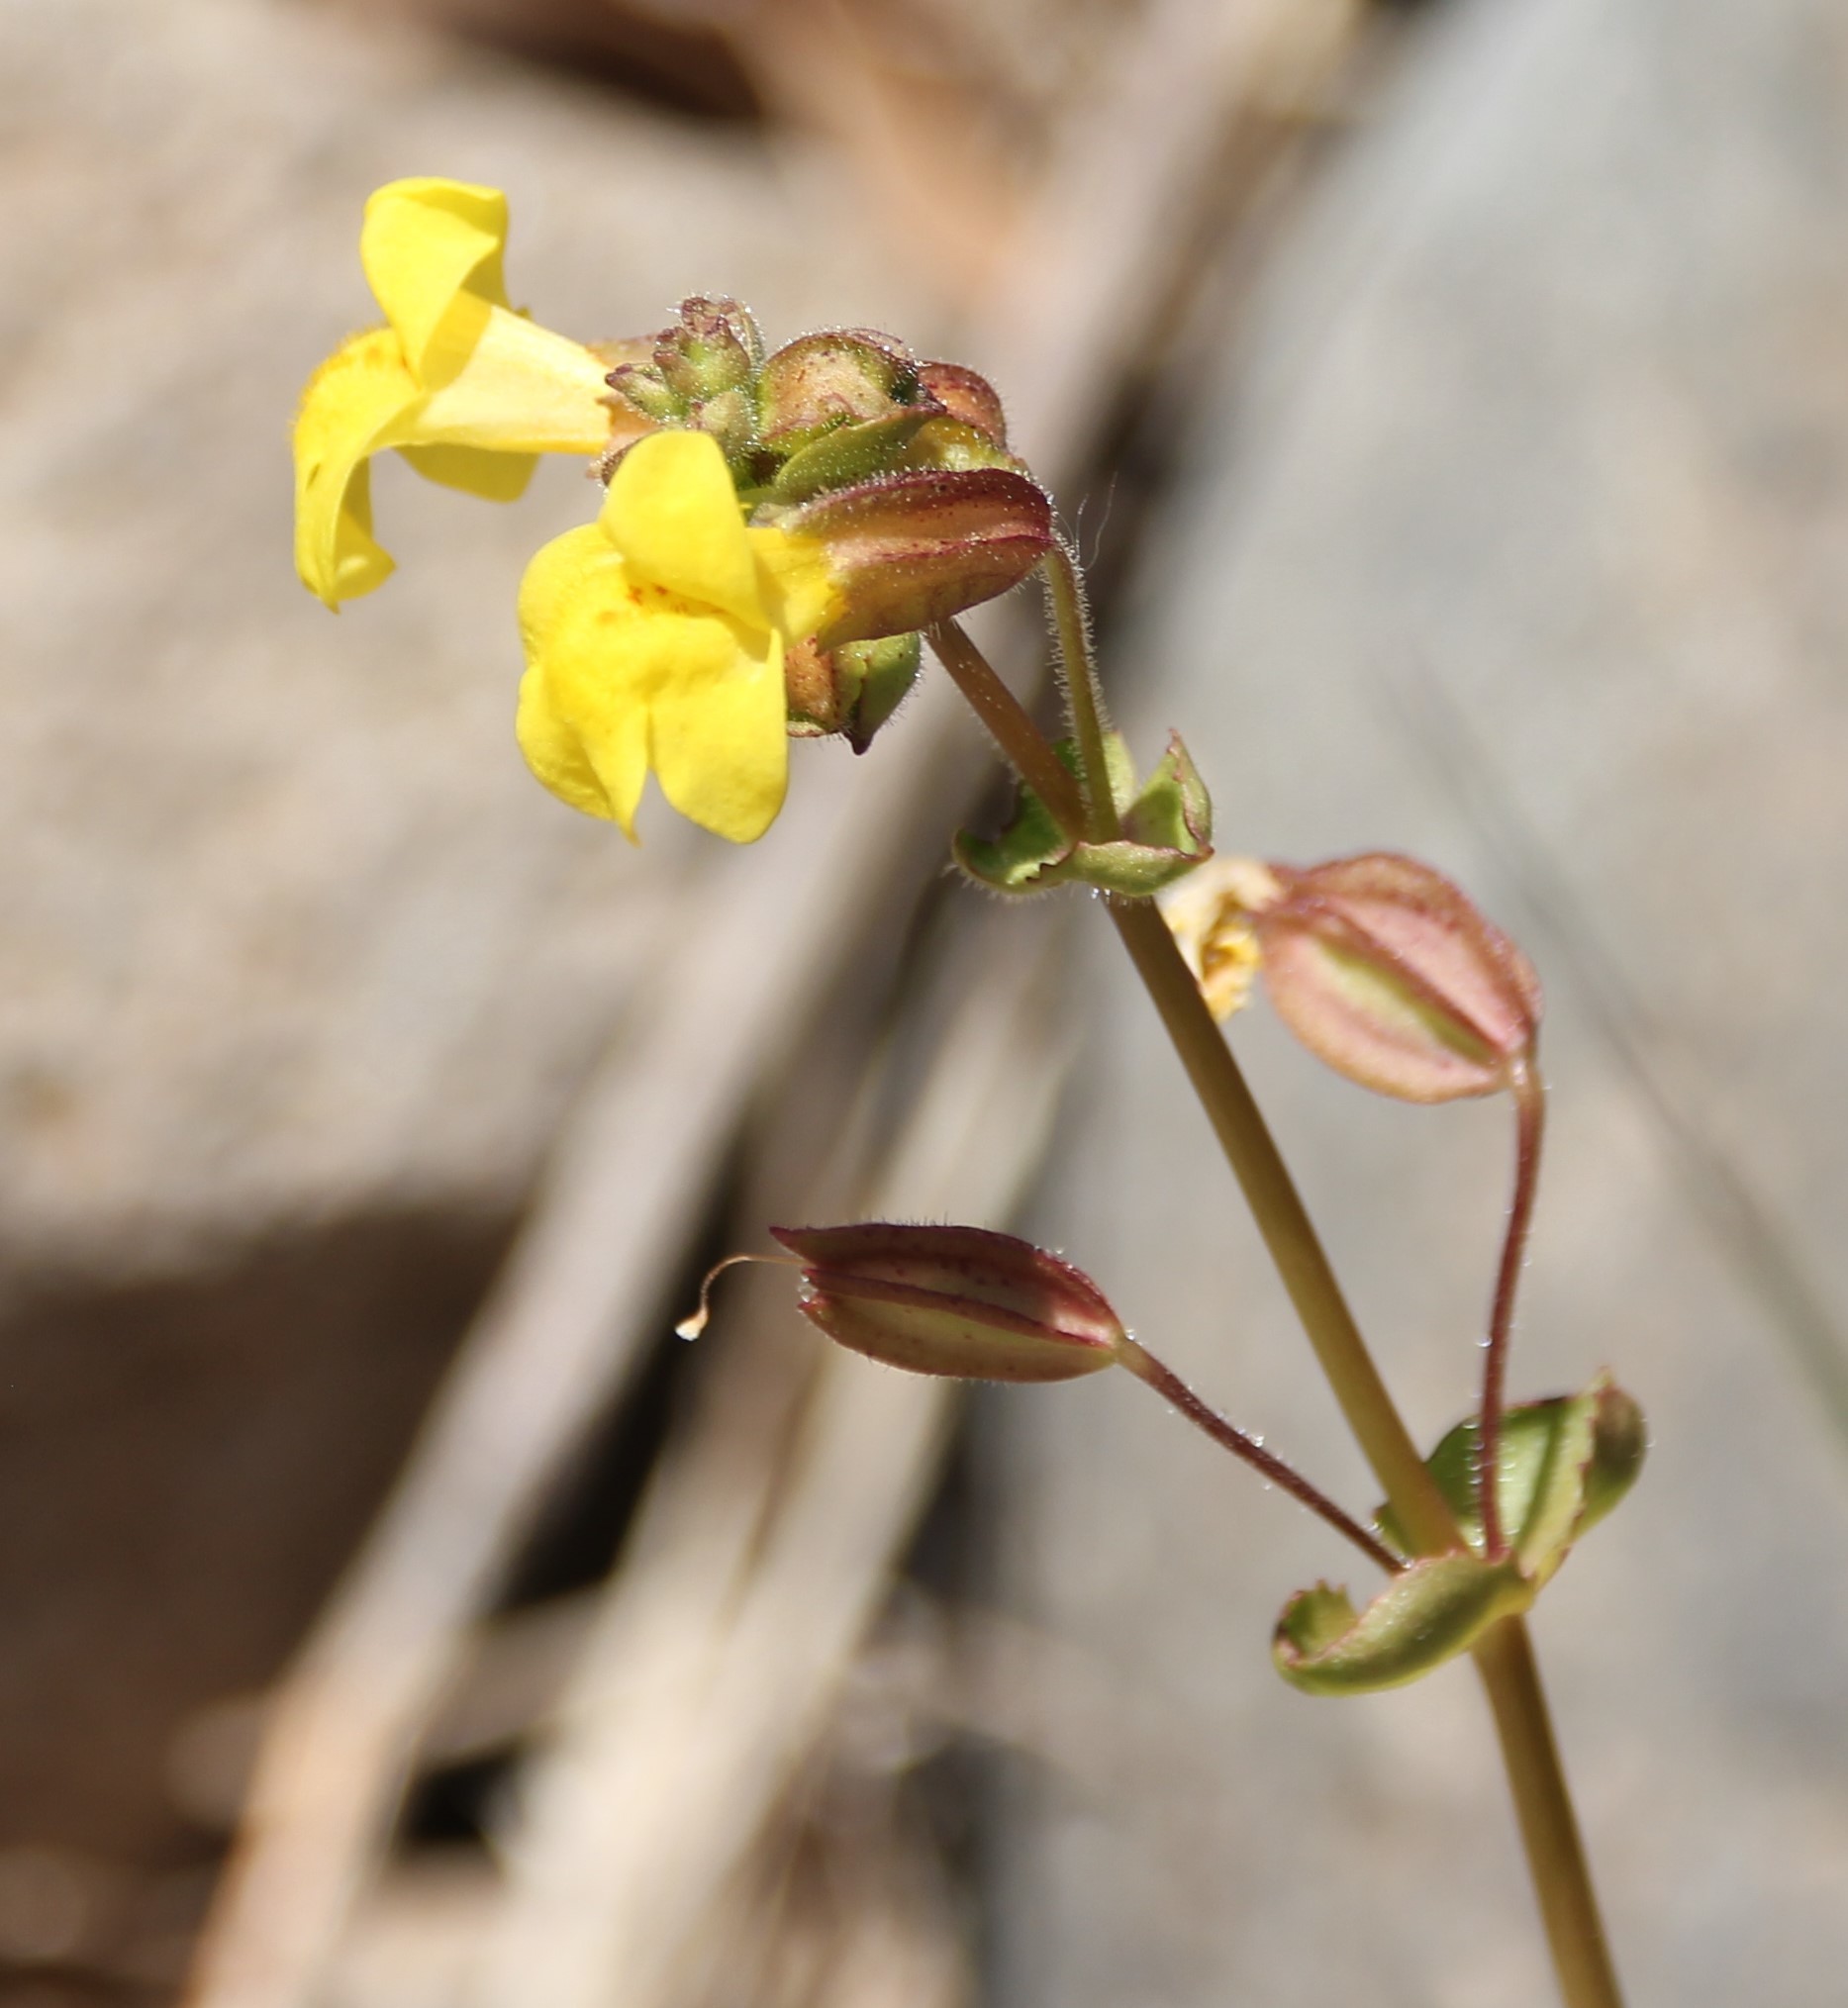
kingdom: Plantae
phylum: Tracheophyta
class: Magnoliopsida
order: Lamiales
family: Phrymaceae
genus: Erythranthe
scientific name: Erythranthe guttata
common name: Monkeyflower
